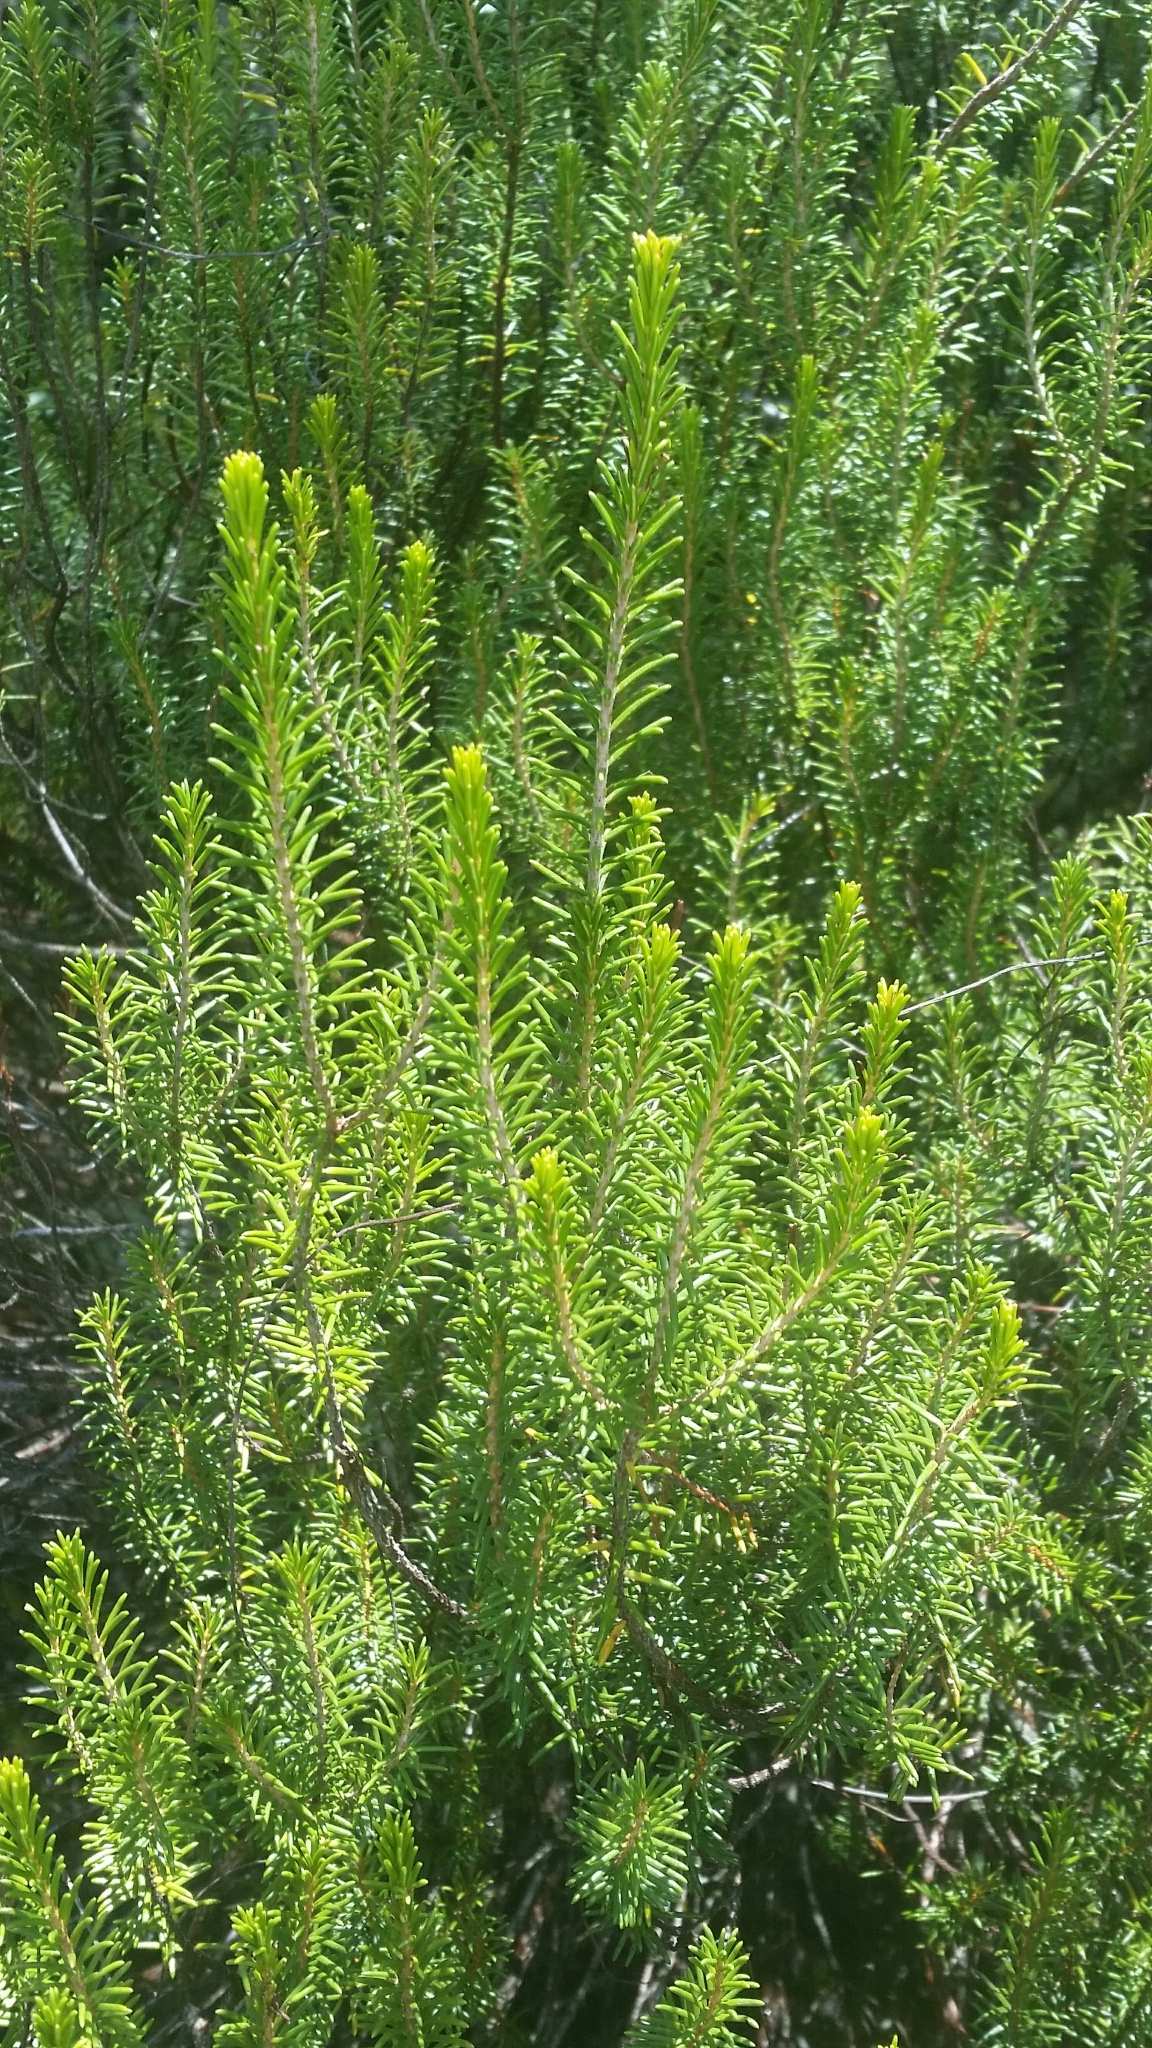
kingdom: Plantae
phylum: Tracheophyta
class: Magnoliopsida
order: Ericales
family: Ericaceae
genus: Ceratiola
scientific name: Ceratiola ericoides
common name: Sandhill-rosemary
